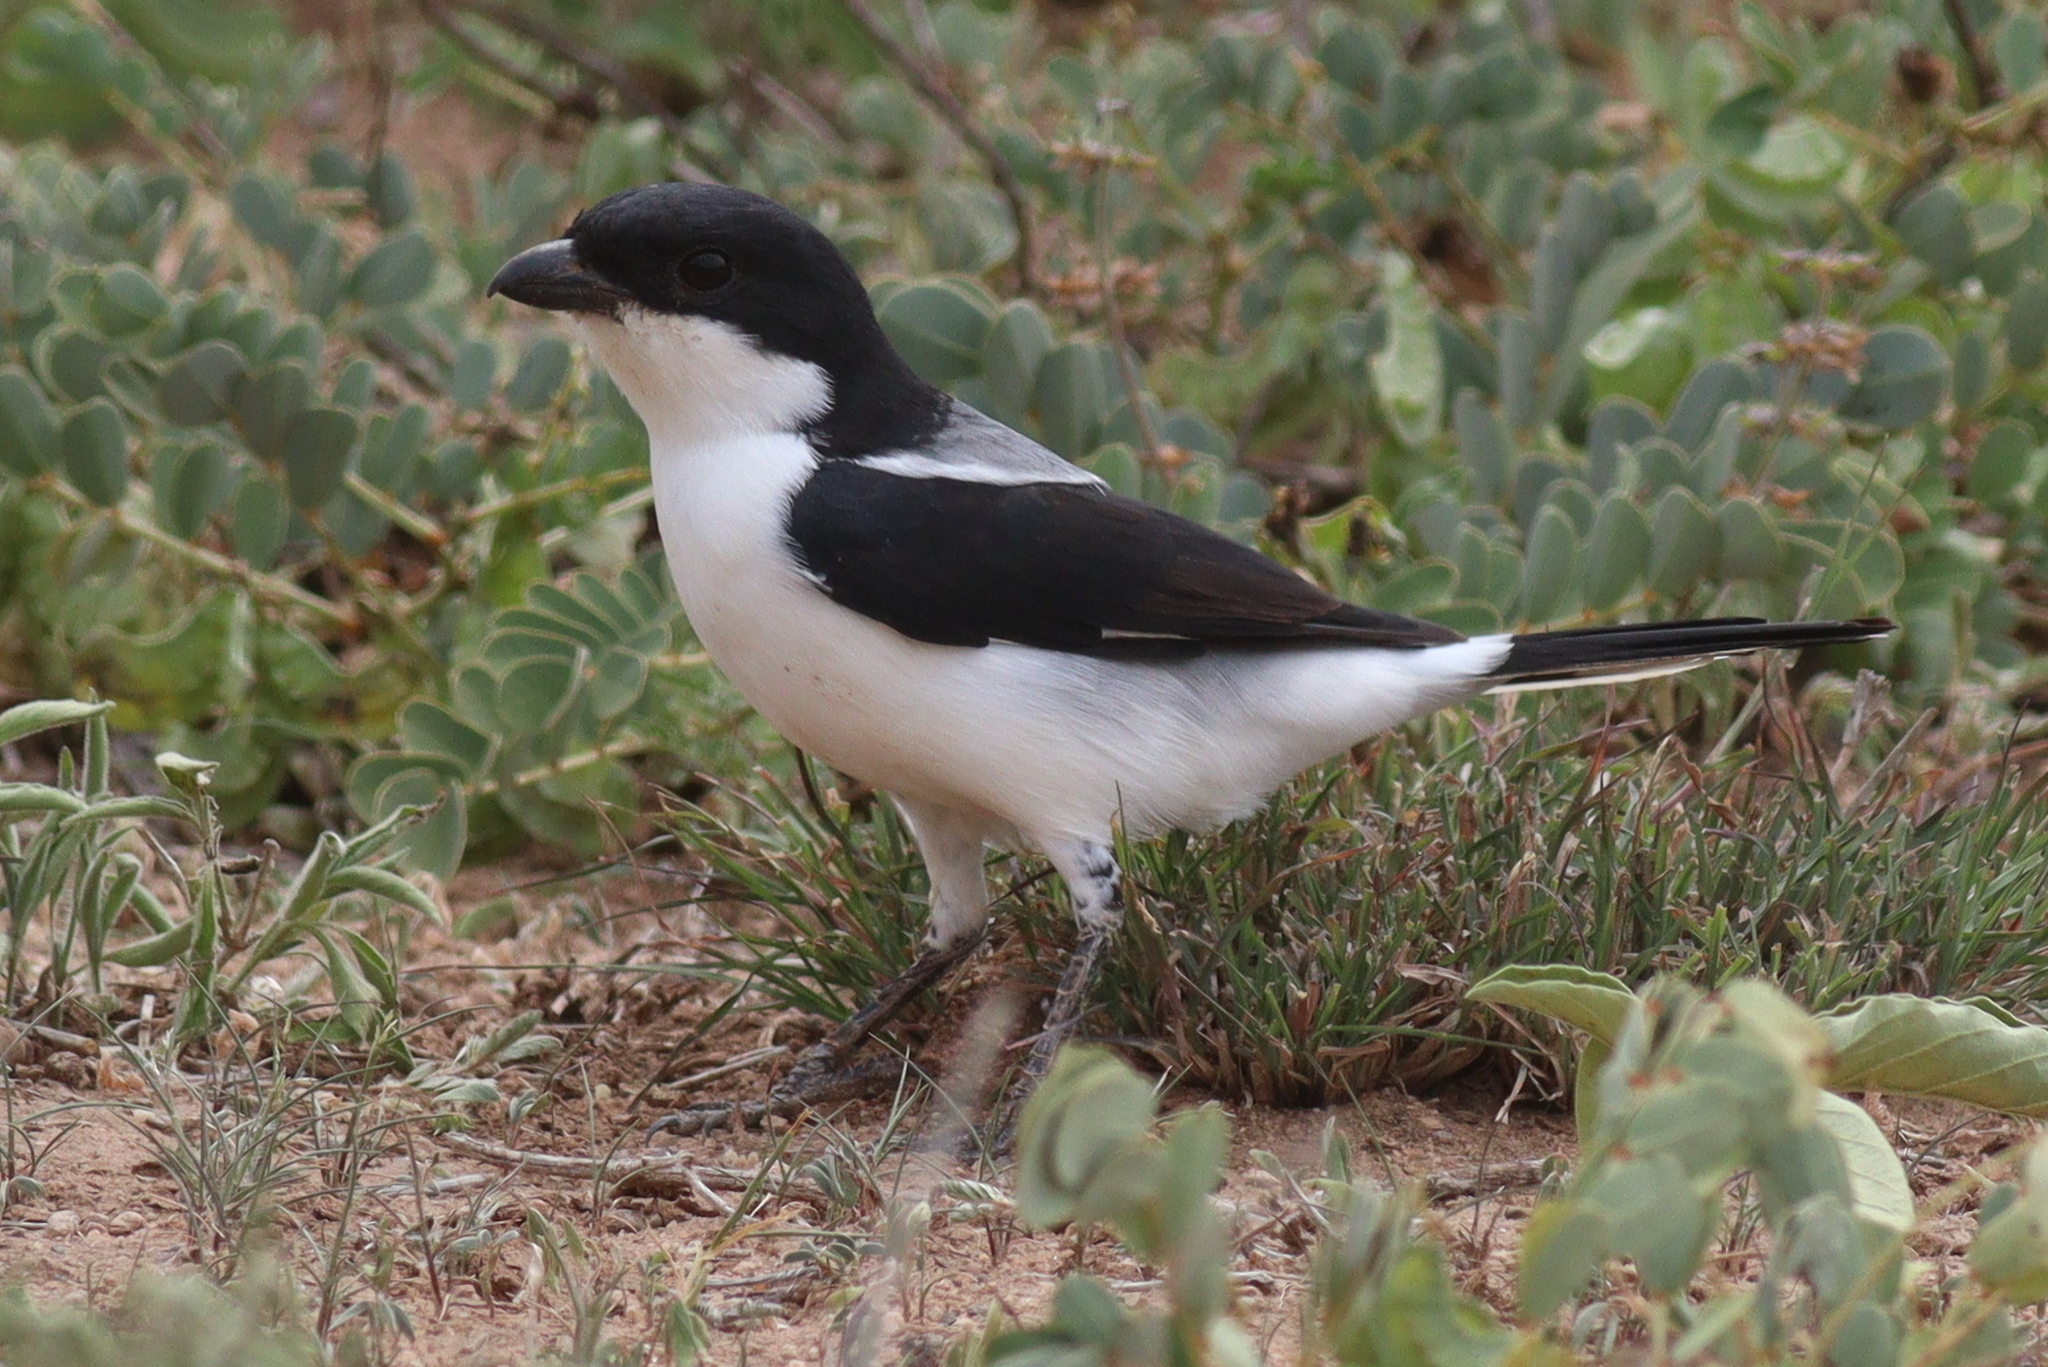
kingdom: Animalia
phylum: Chordata
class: Aves
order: Passeriformes
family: Laniidae
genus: Lanius
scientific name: Lanius dorsalis
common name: Taita fiscal
